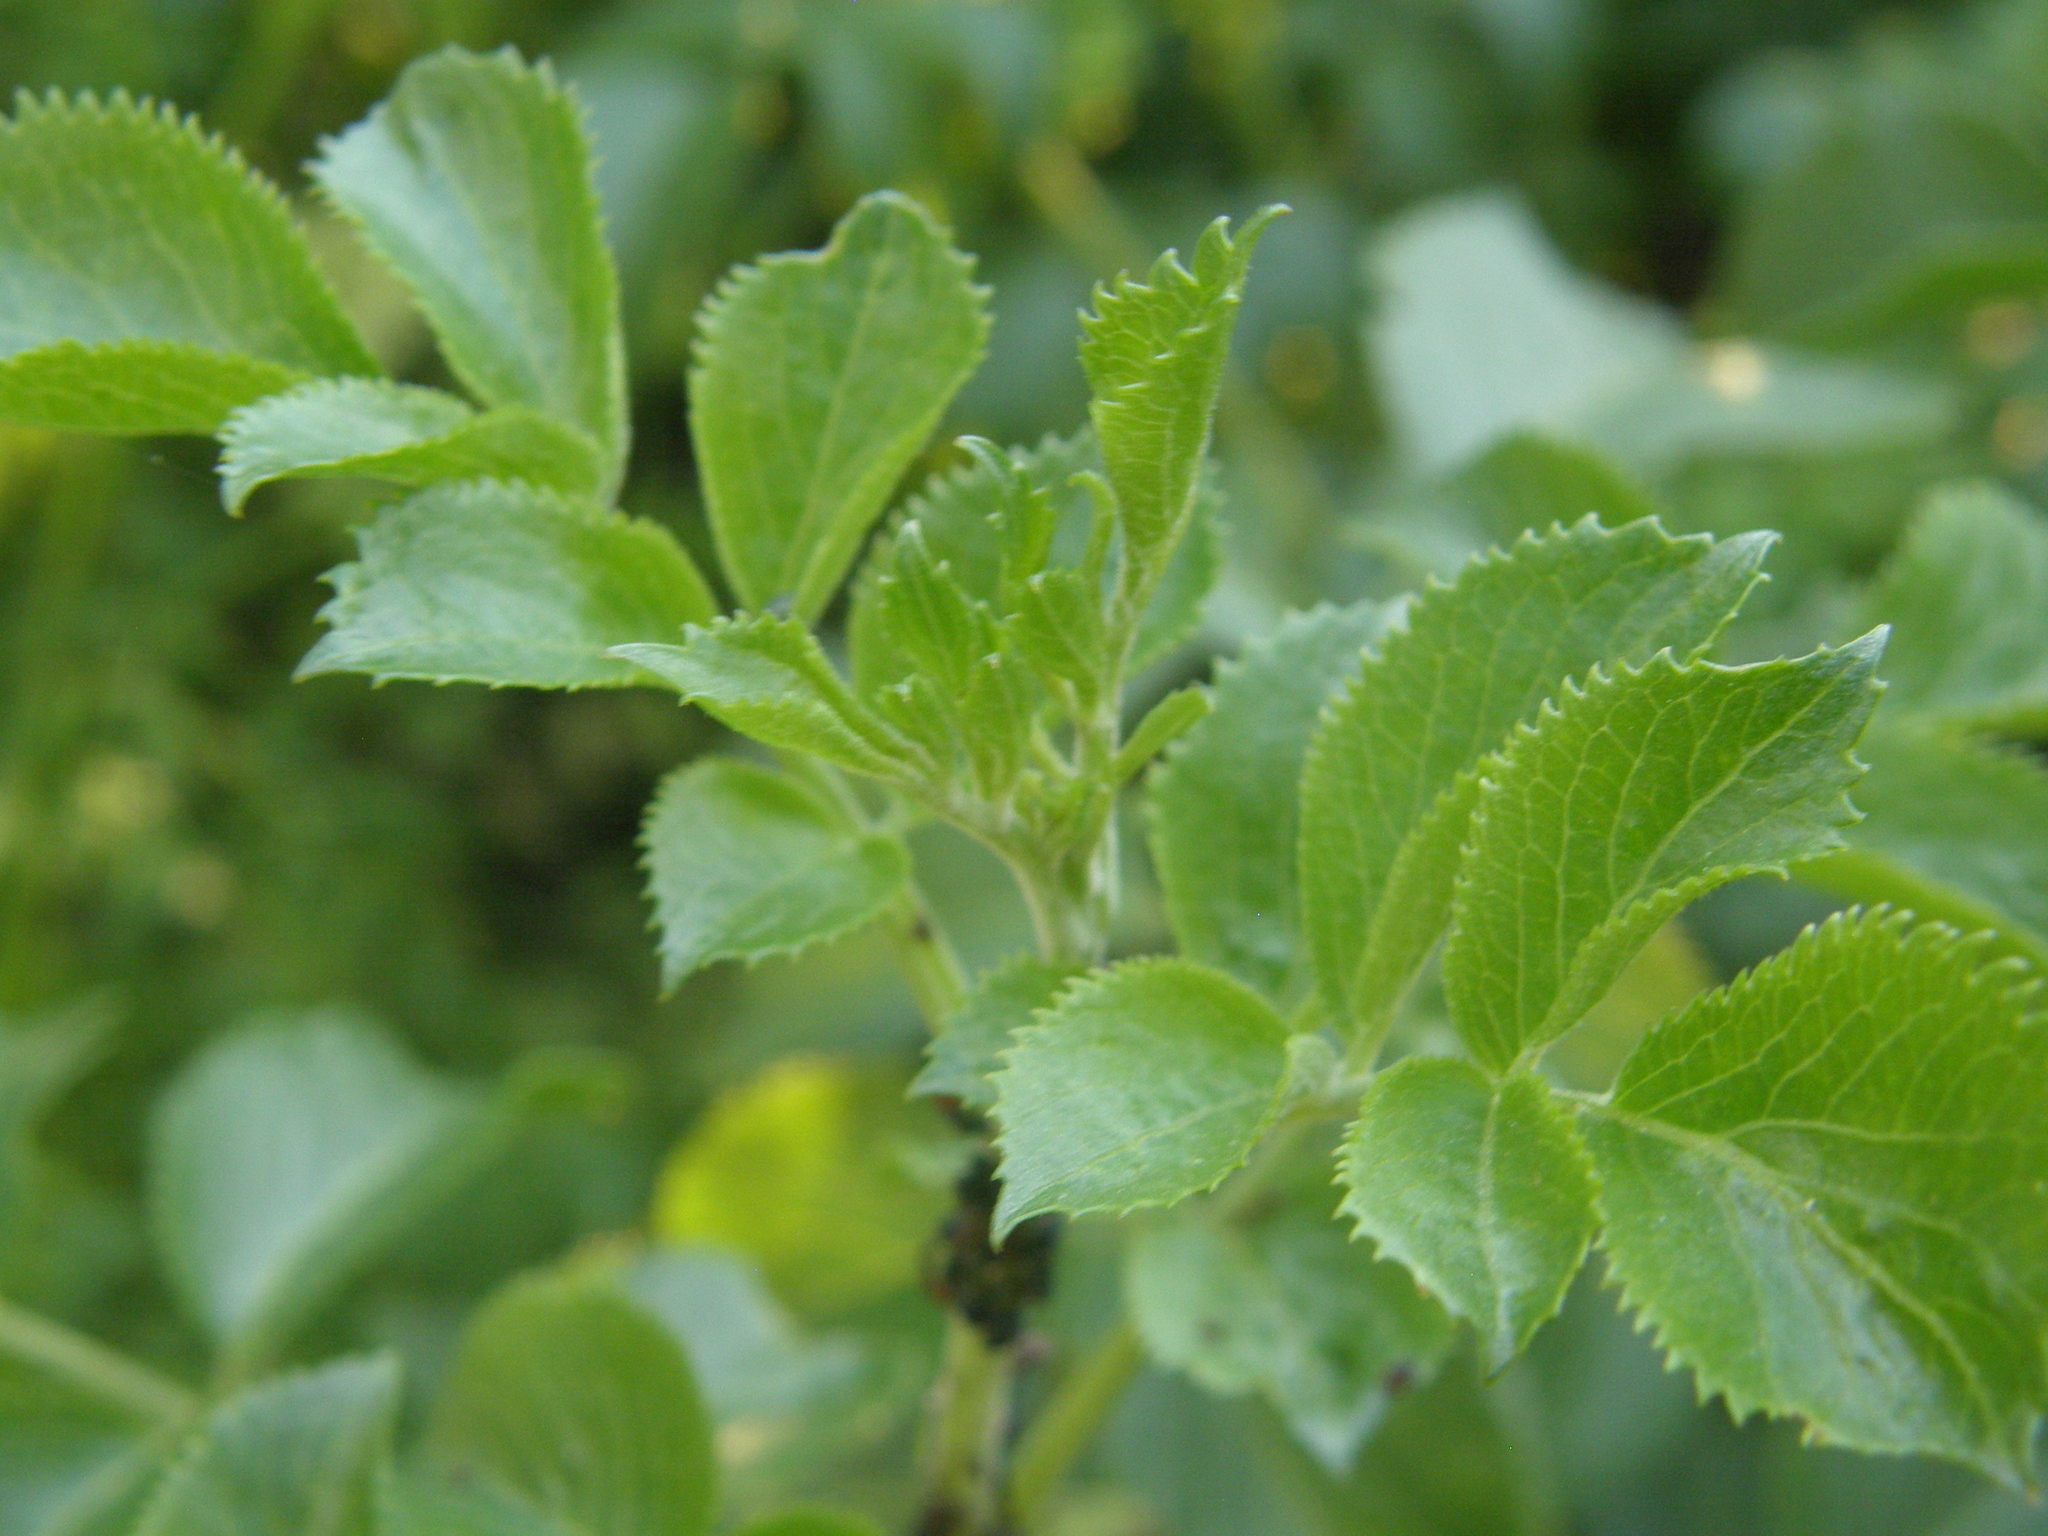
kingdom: Plantae
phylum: Tracheophyta
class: Magnoliopsida
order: Dipsacales
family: Viburnaceae
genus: Sambucus
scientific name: Sambucus cerulea
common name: Blue elder
